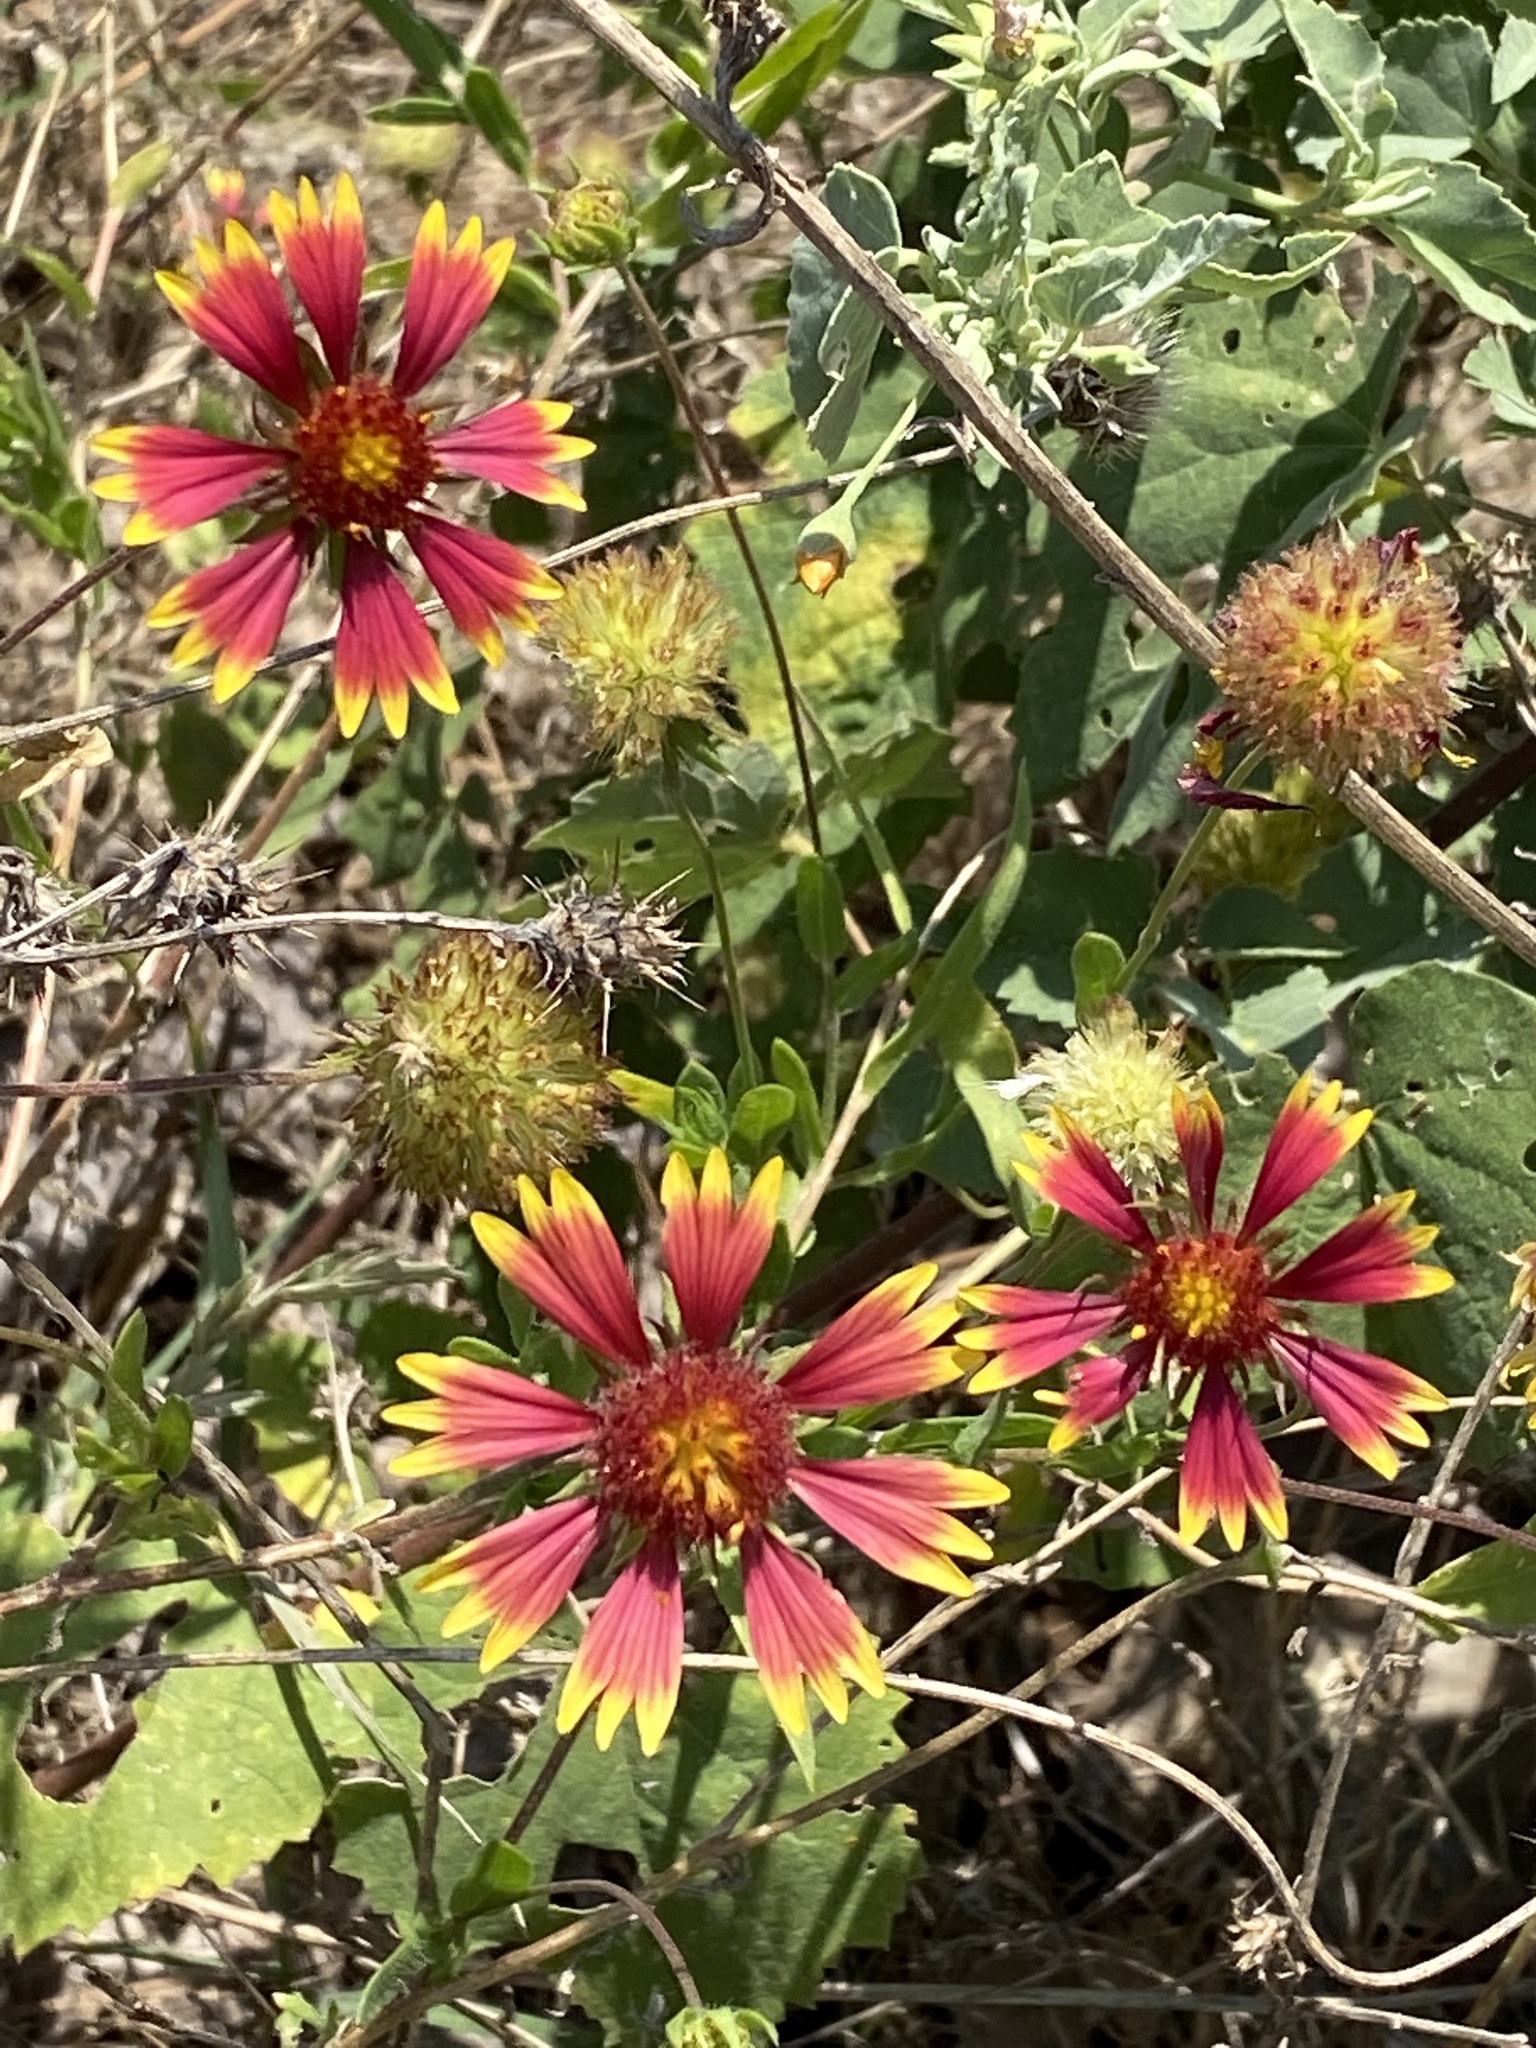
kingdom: Plantae
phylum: Tracheophyta
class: Magnoliopsida
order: Asterales
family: Asteraceae
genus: Gaillardia
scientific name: Gaillardia pulchella
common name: Firewheel
